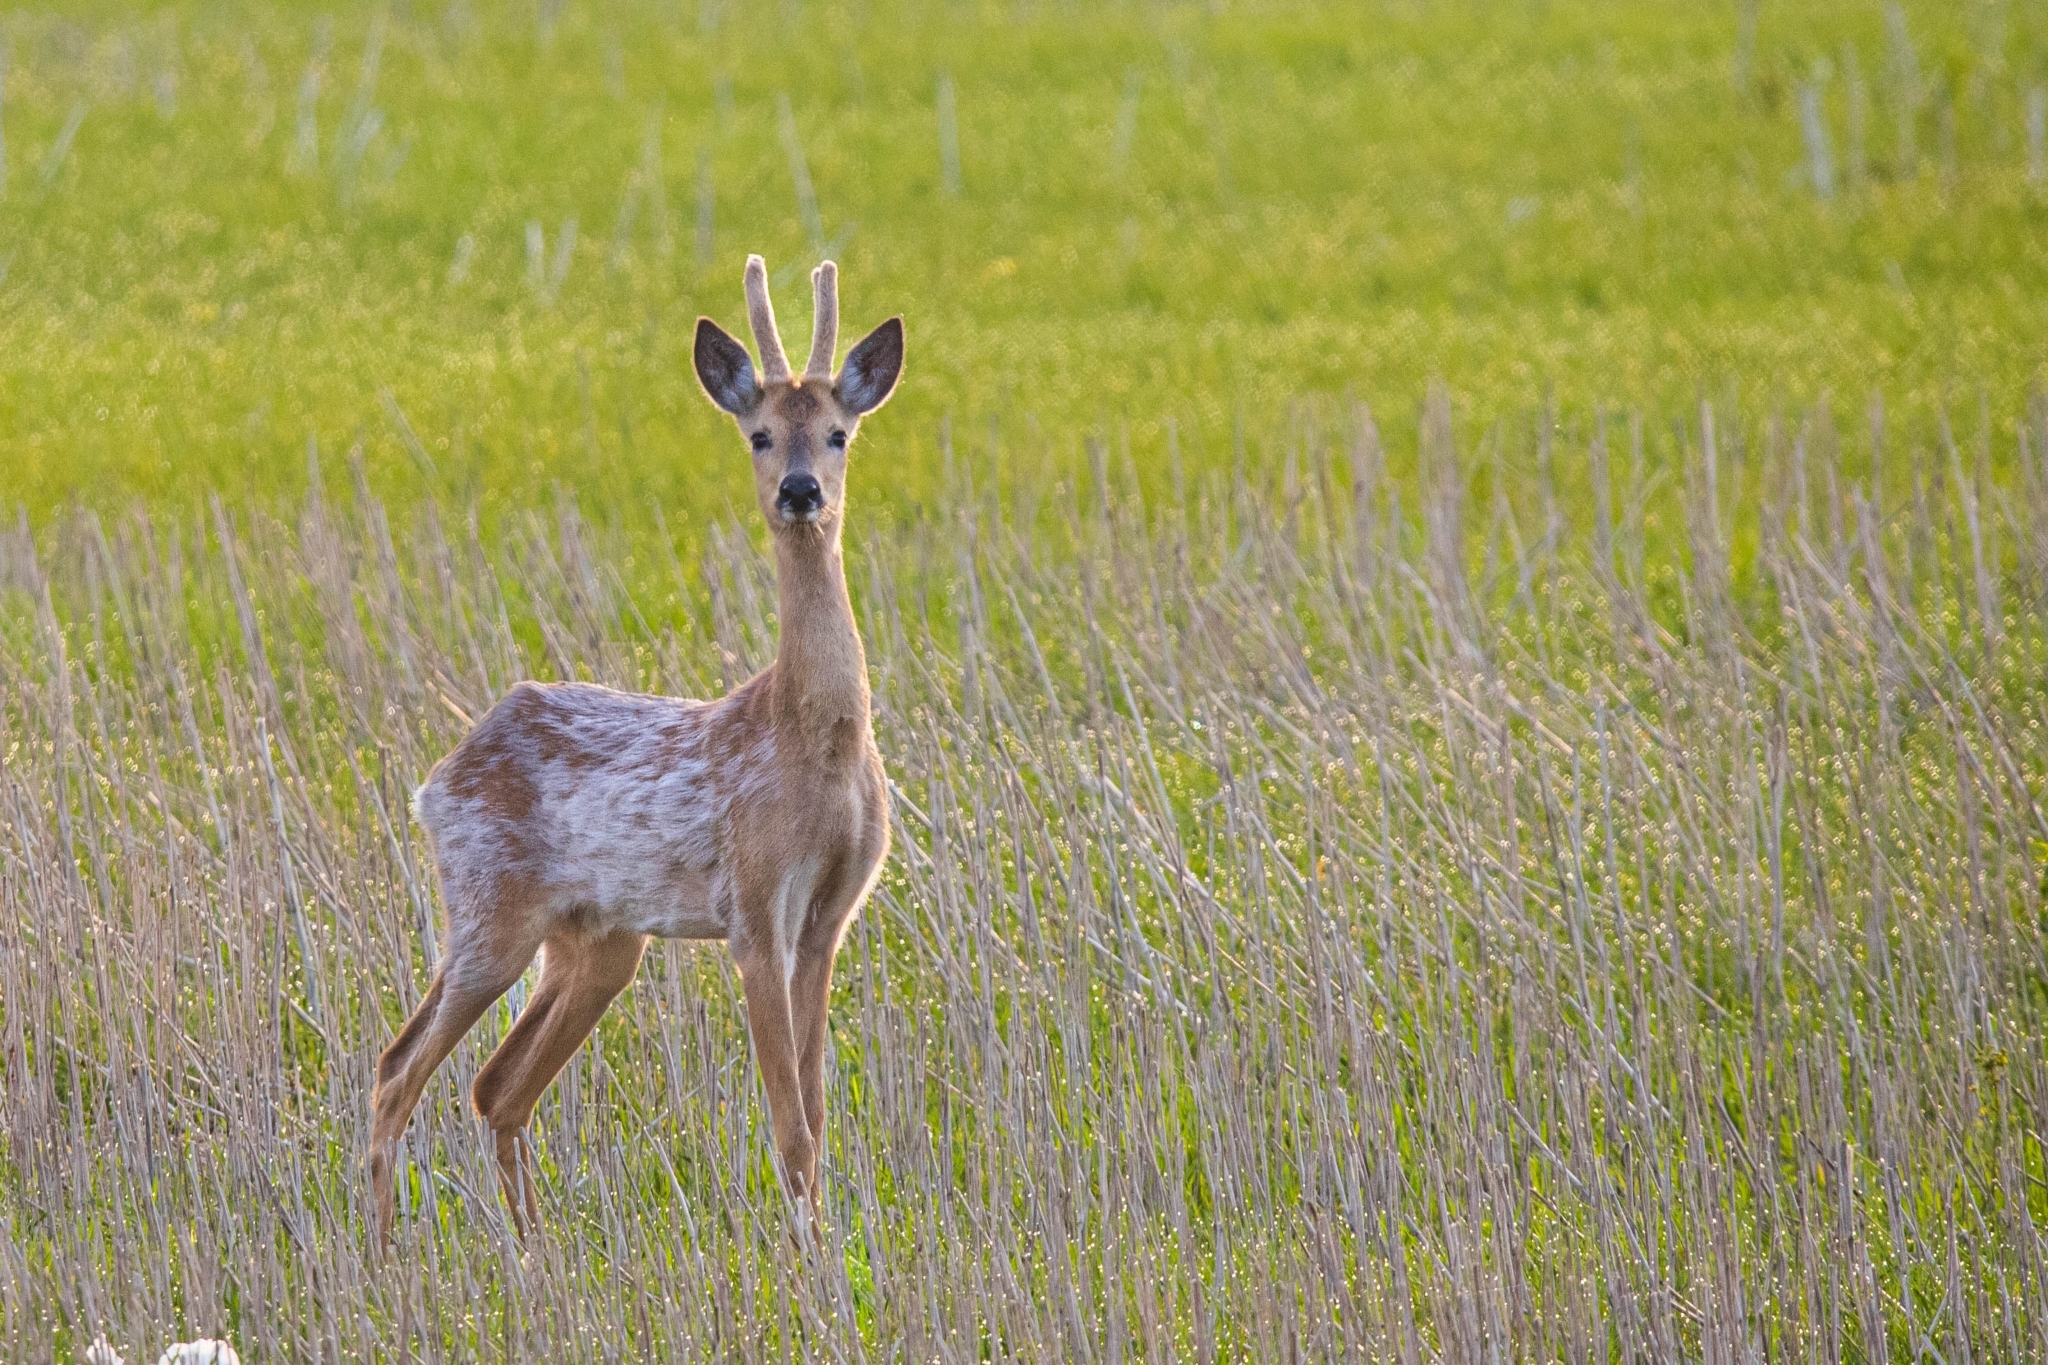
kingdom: Animalia
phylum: Chordata
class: Mammalia
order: Artiodactyla
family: Cervidae
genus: Capreolus
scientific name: Capreolus pygargus
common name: Siberian roe
